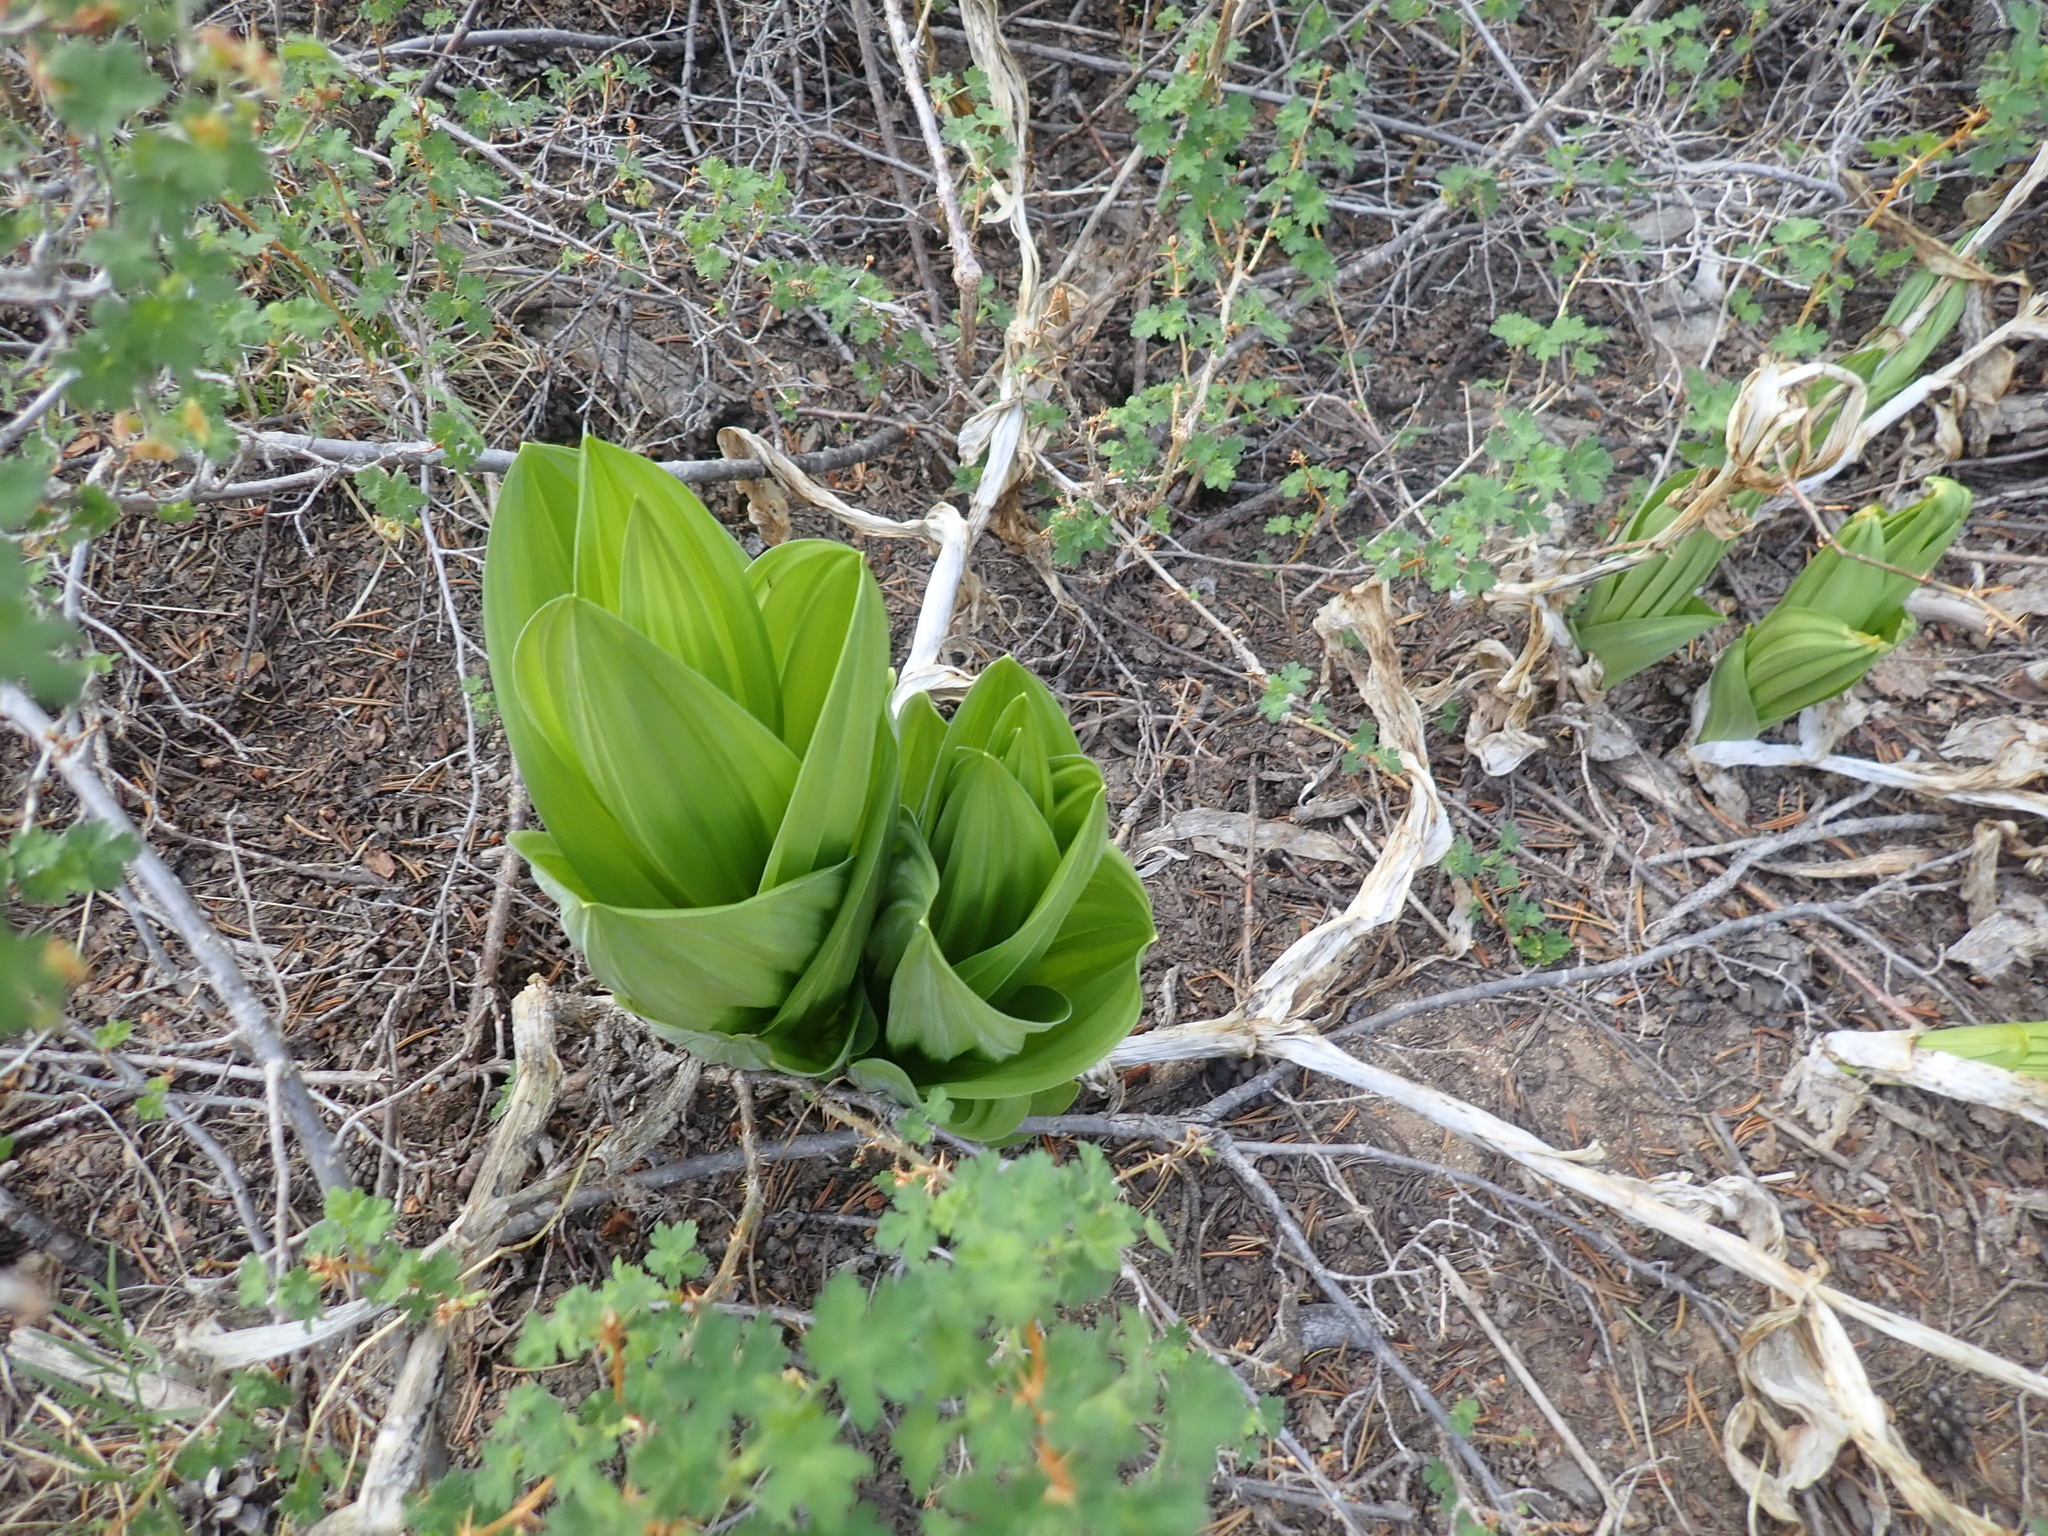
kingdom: Plantae
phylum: Tracheophyta
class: Liliopsida
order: Liliales
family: Melanthiaceae
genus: Veratrum
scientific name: Veratrum californicum
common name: California veratrum
